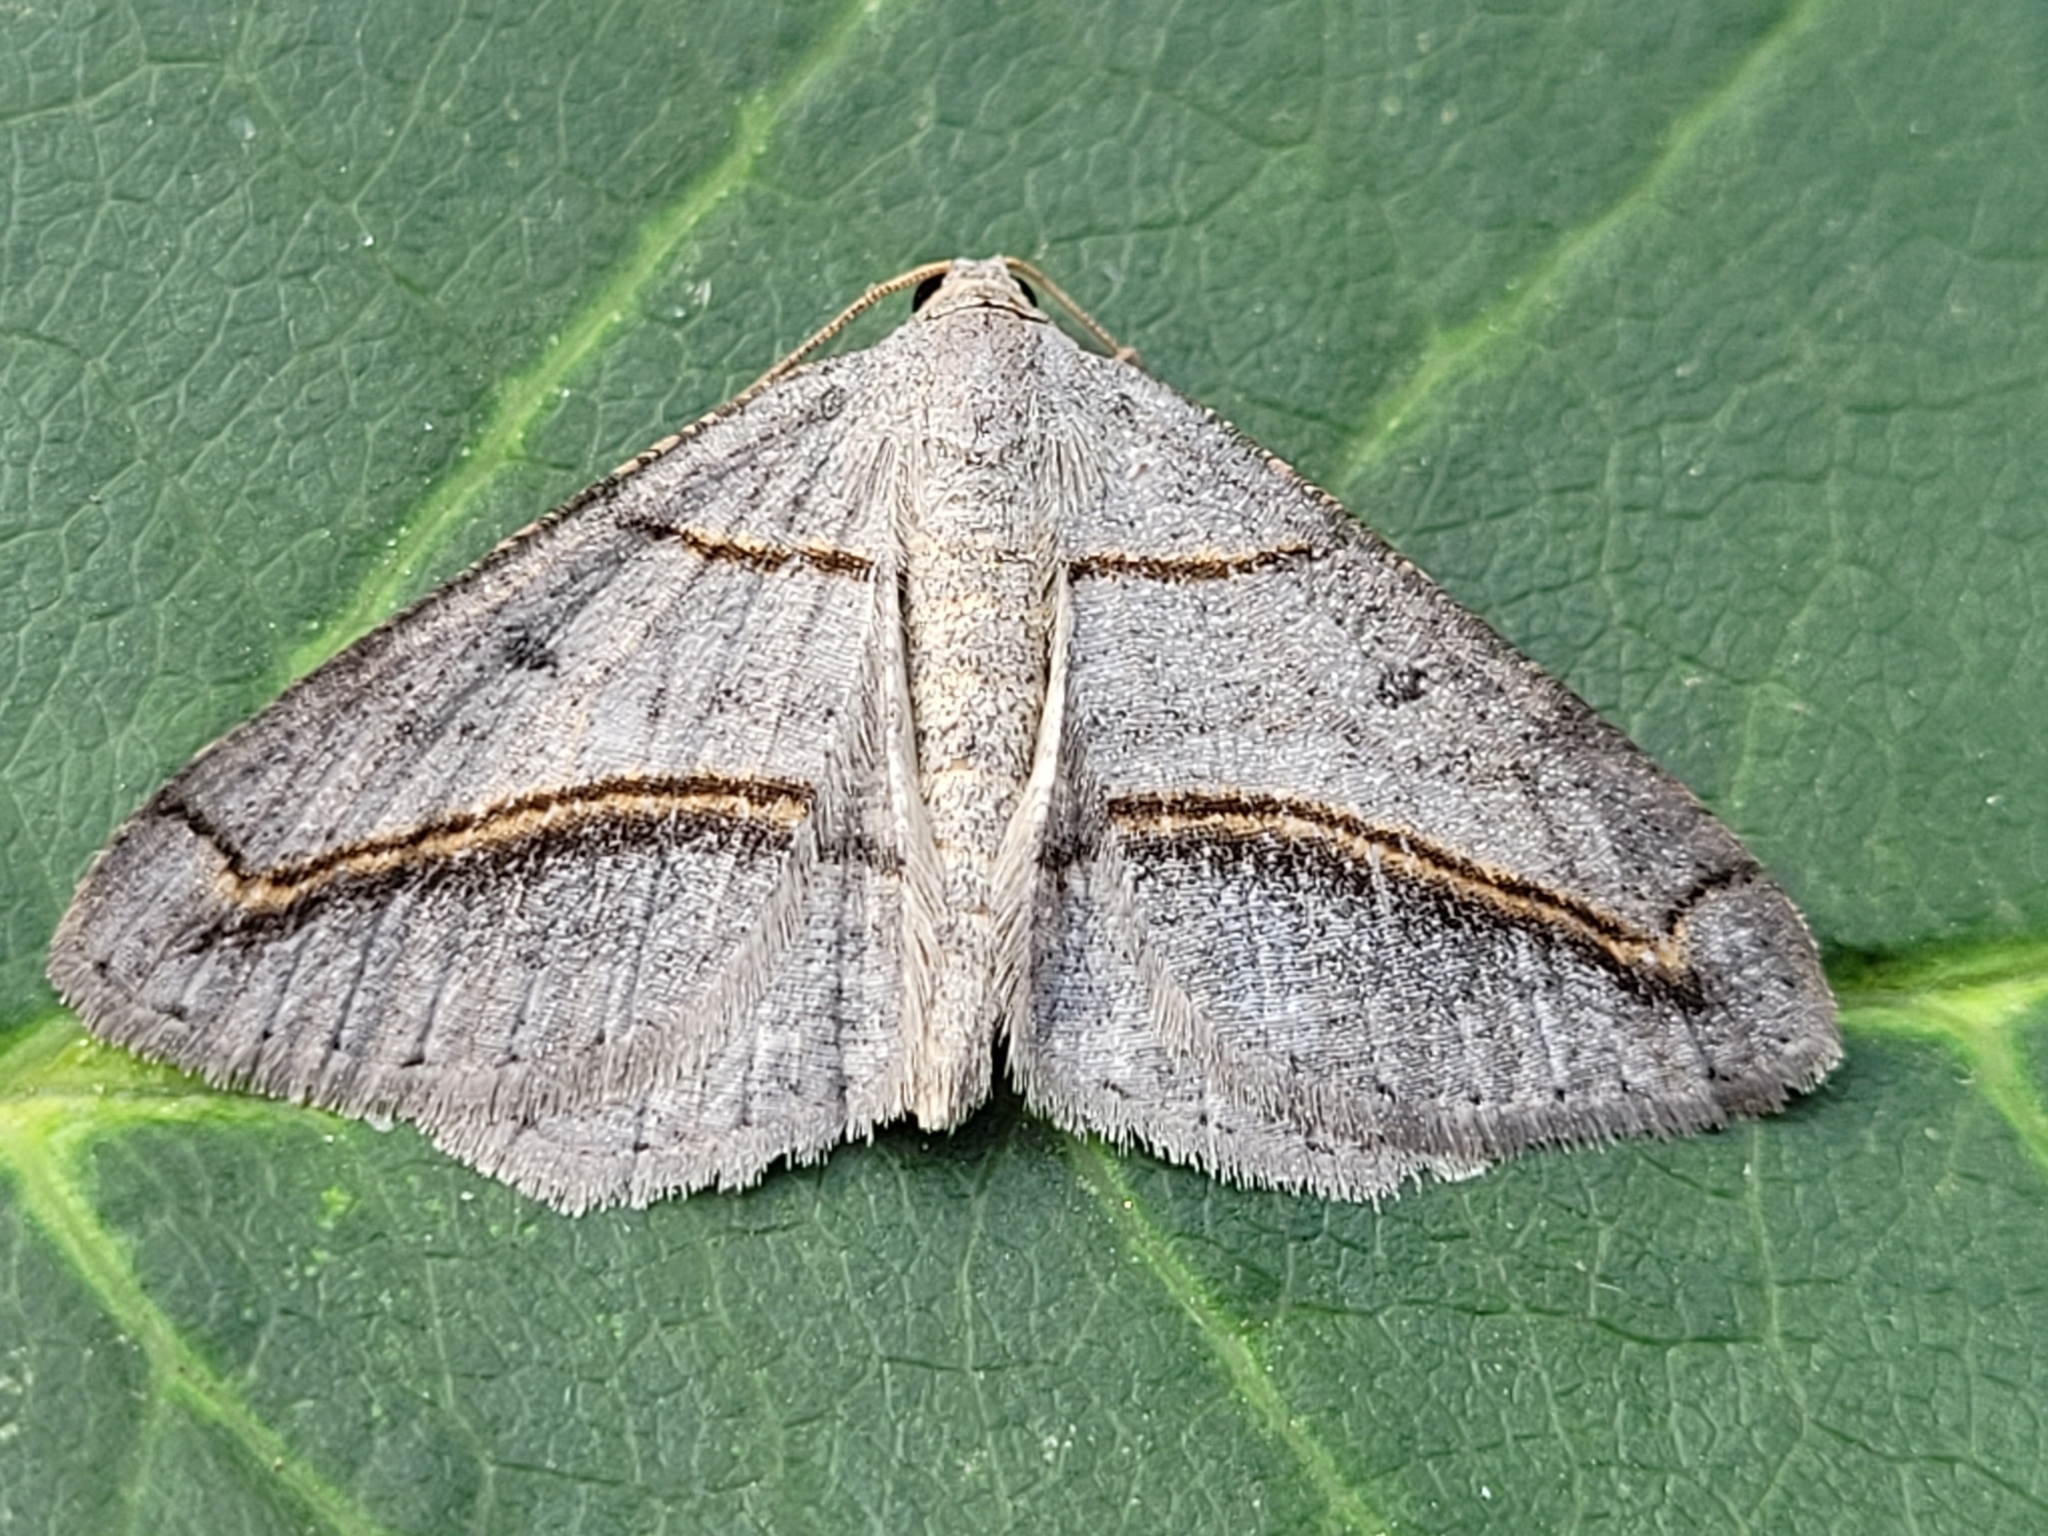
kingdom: Animalia
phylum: Arthropoda
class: Insecta
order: Lepidoptera
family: Geometridae
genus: Digrammia
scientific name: Digrammia mellistrigata
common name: Yellow-lined angle
